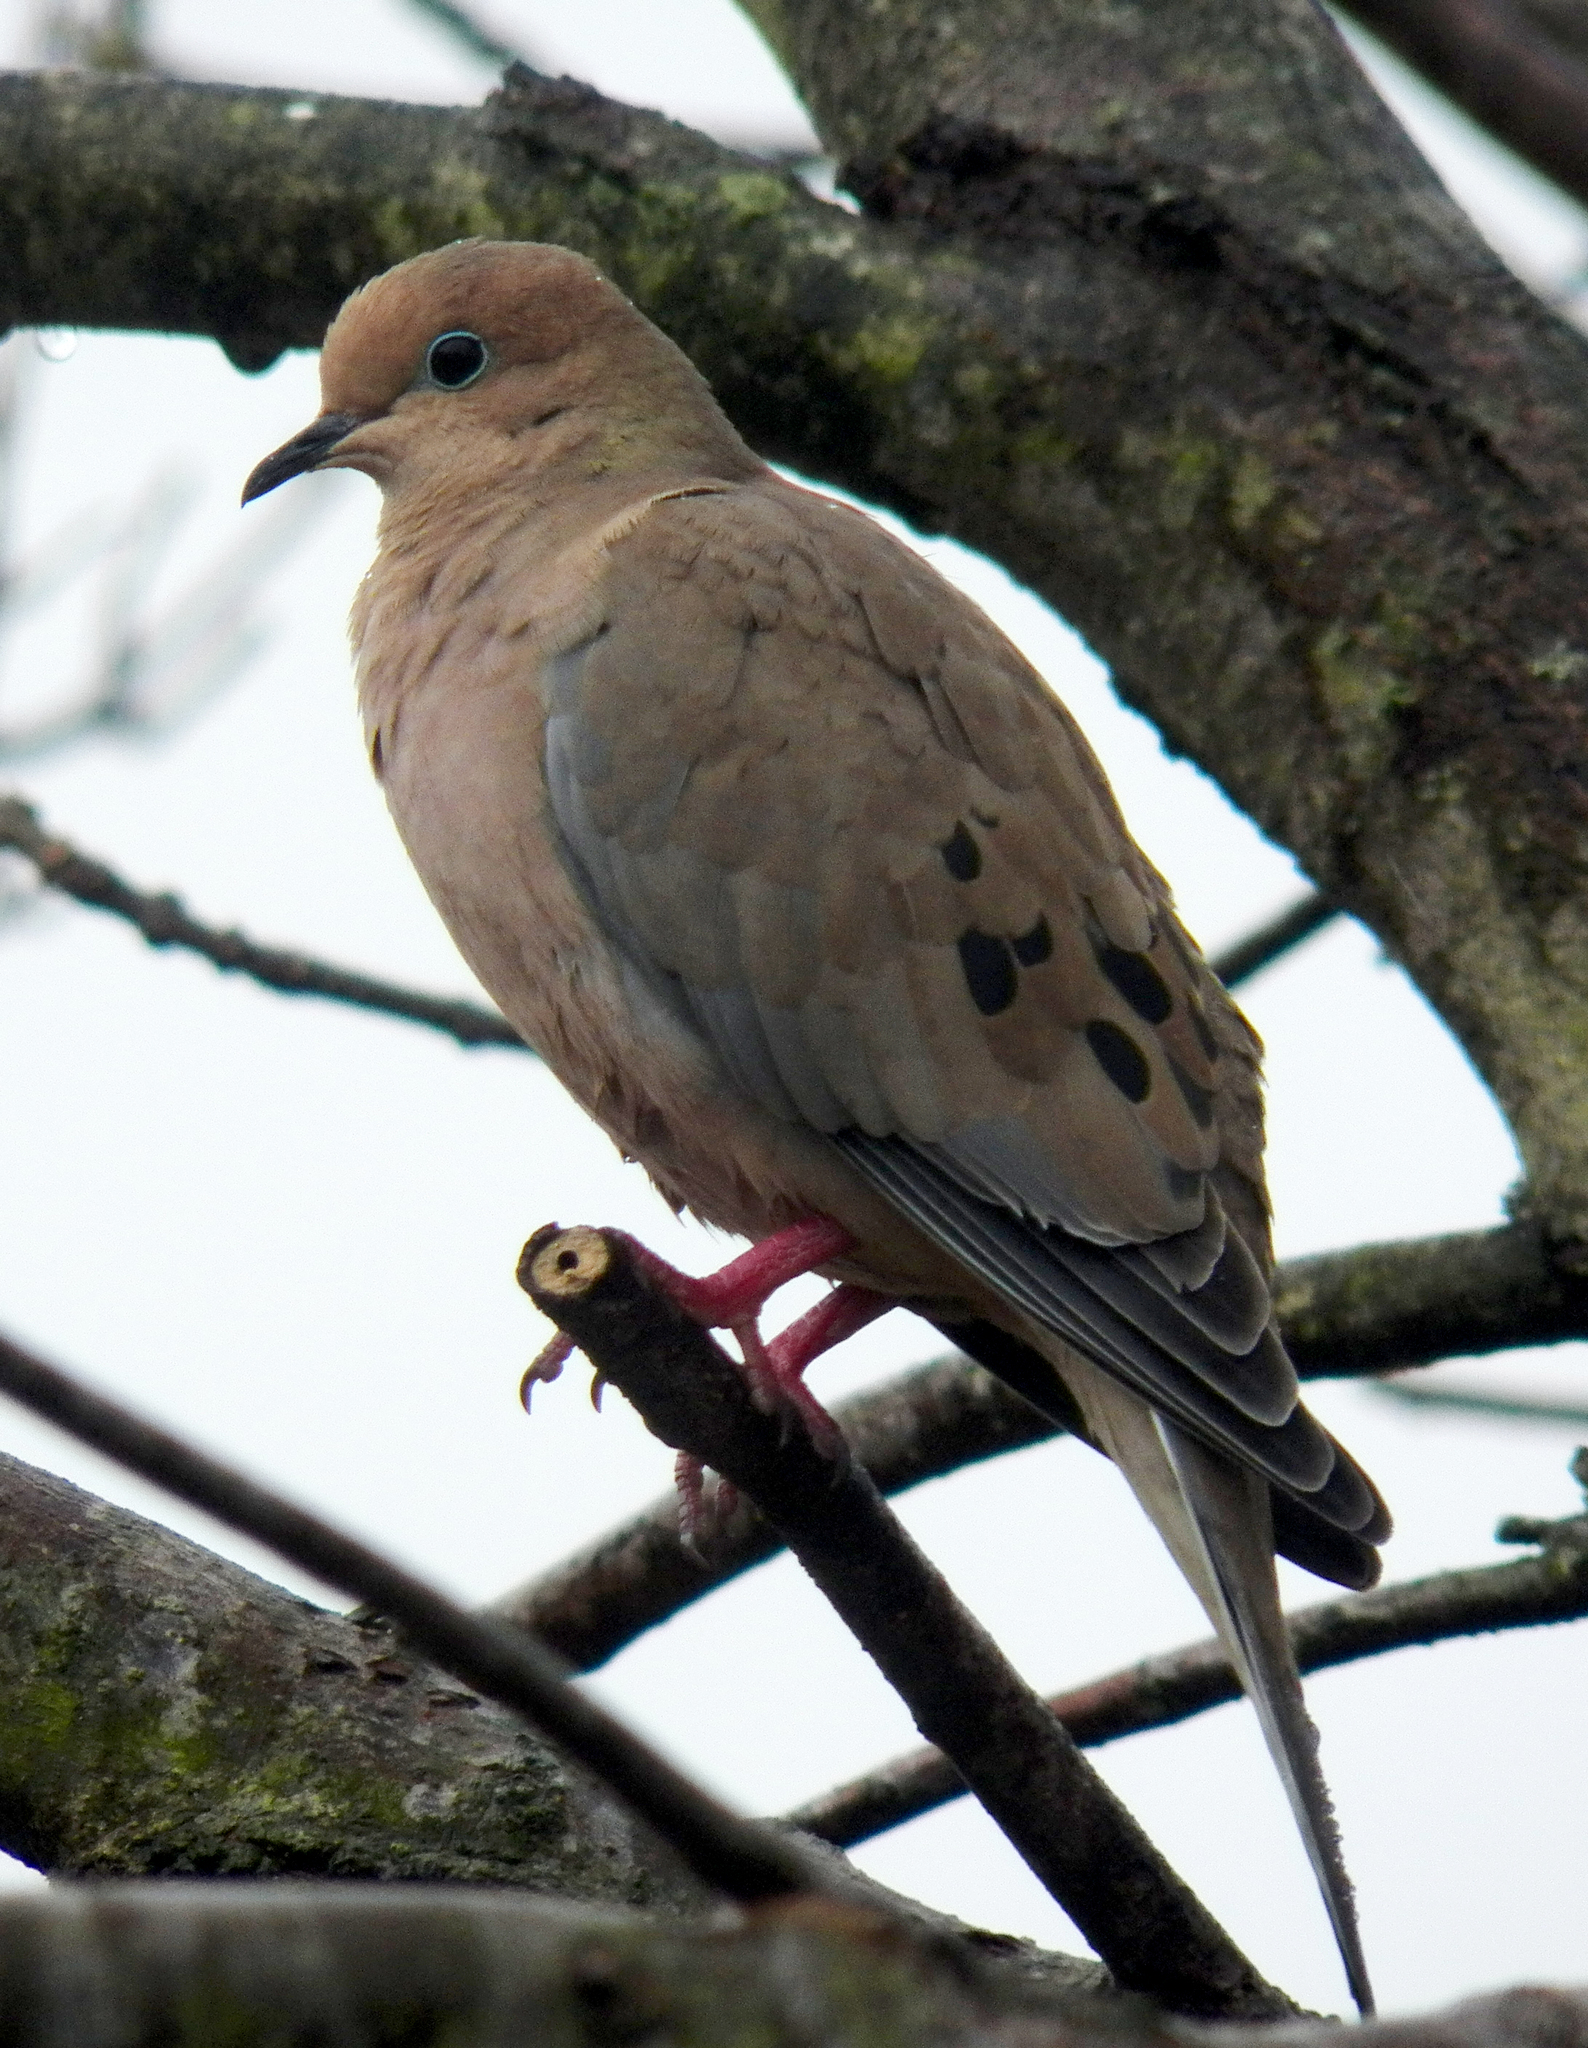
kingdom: Animalia
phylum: Chordata
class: Aves
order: Columbiformes
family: Columbidae
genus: Zenaida
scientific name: Zenaida macroura
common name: Mourning dove
